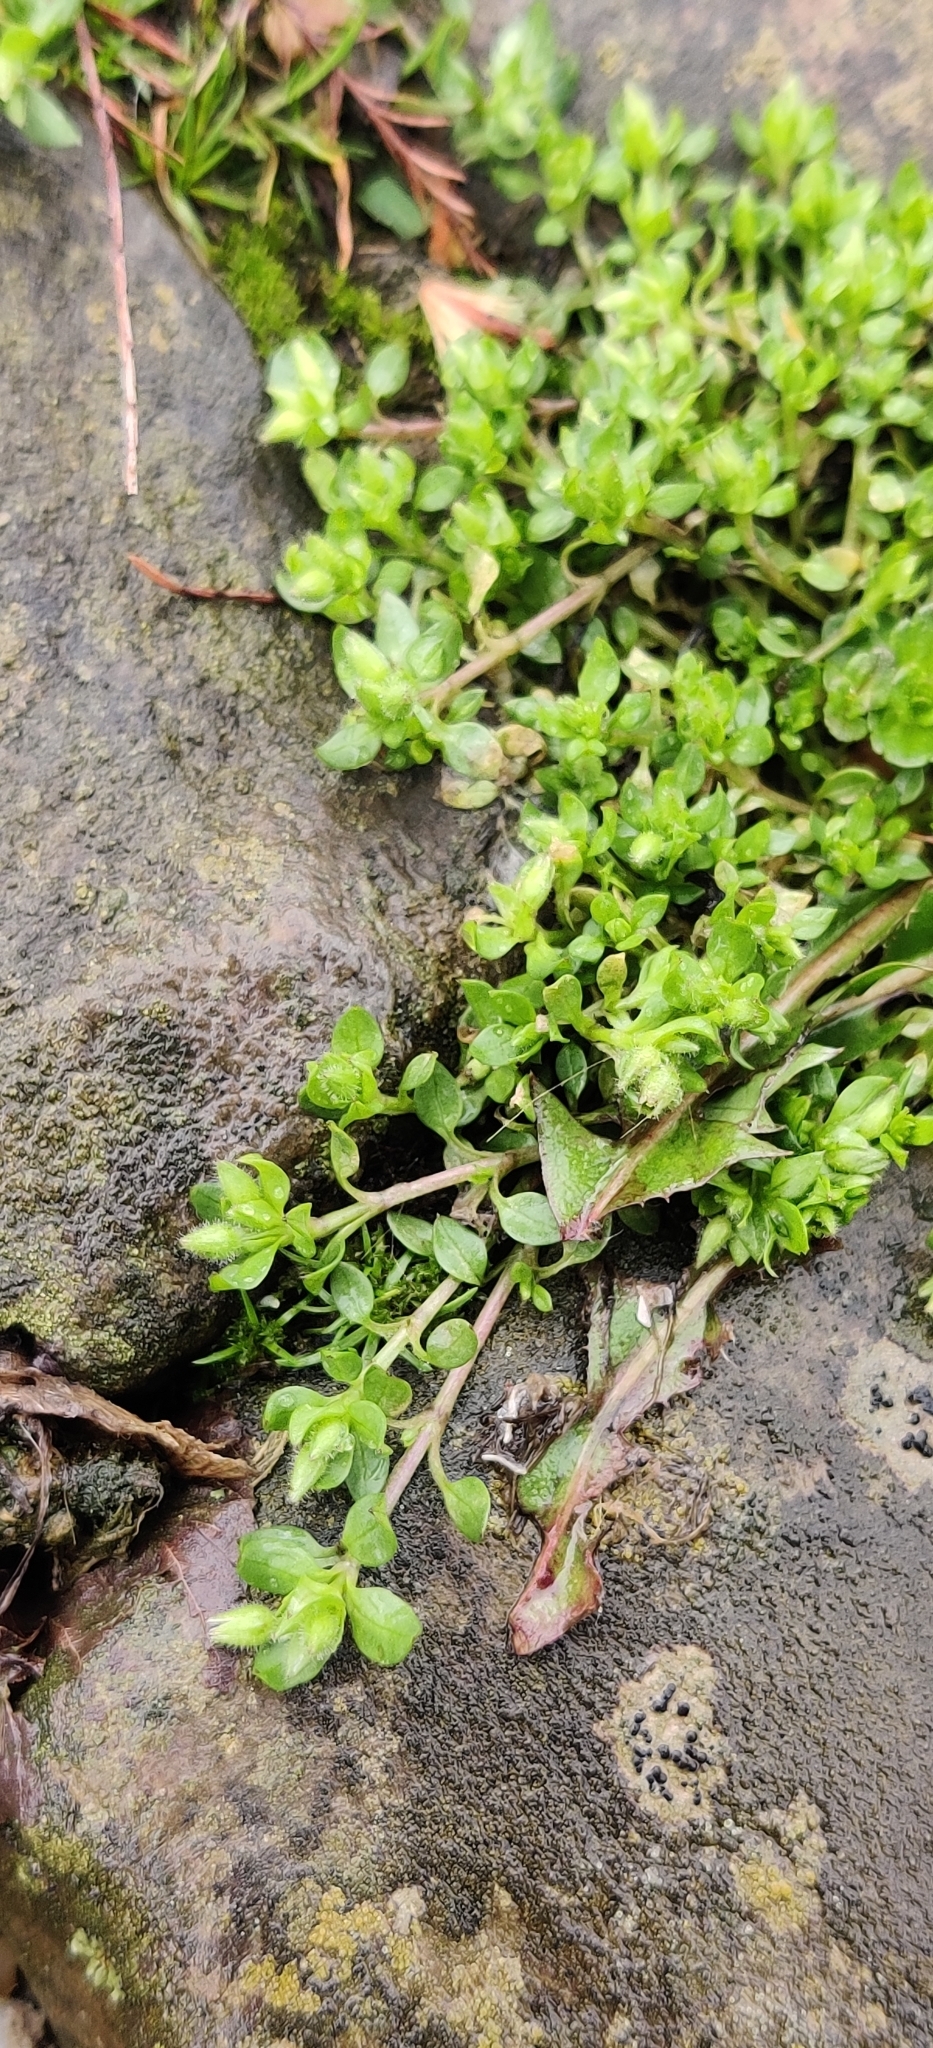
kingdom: Plantae
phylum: Tracheophyta
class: Magnoliopsida
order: Caryophyllales
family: Caryophyllaceae
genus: Stellaria
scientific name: Stellaria apetala
